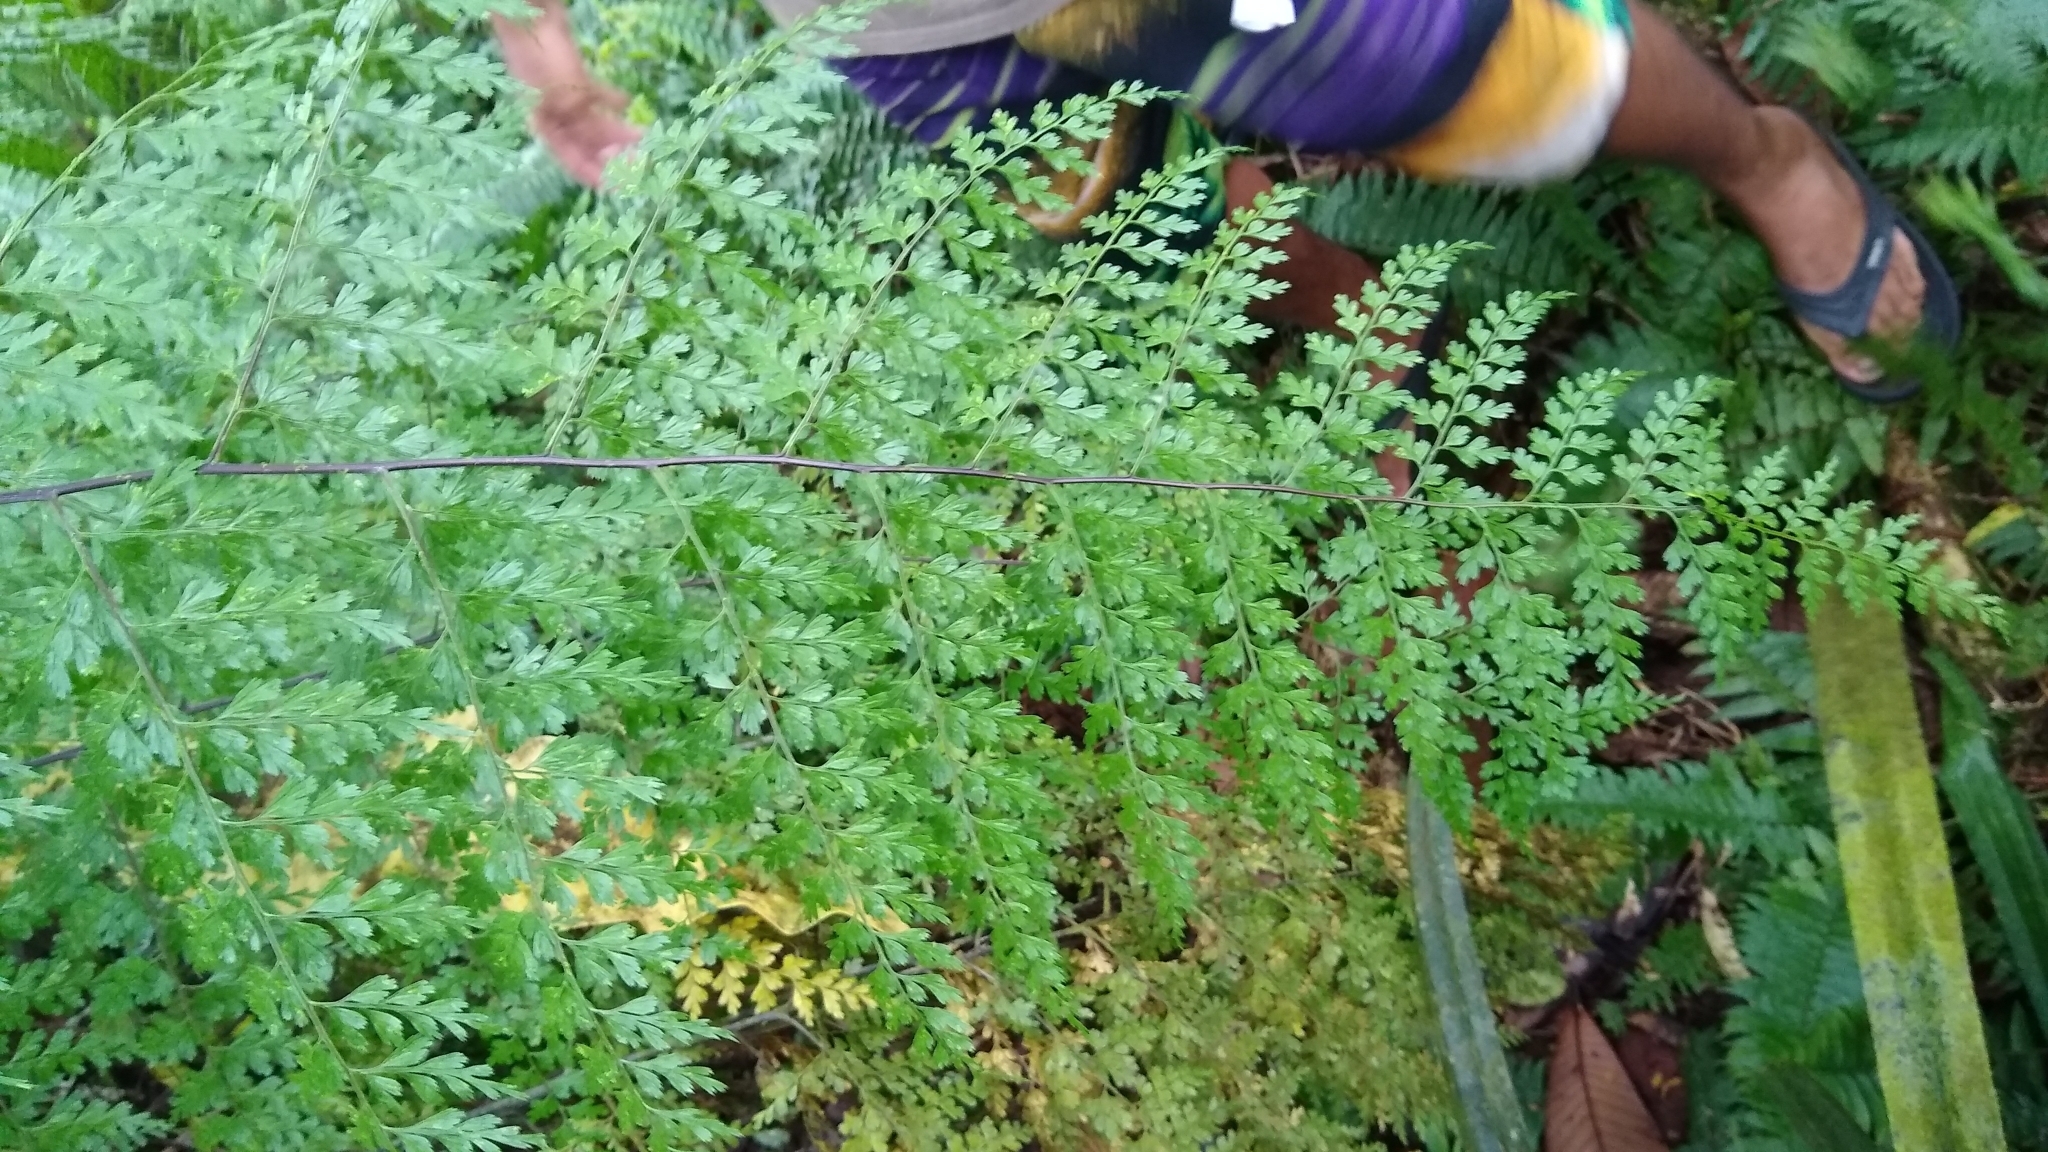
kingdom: Plantae
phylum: Tracheophyta
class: Polypodiopsida
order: Polypodiales
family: Aspleniaceae
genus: Asplenium
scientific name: Asplenium laserpitiifolium
